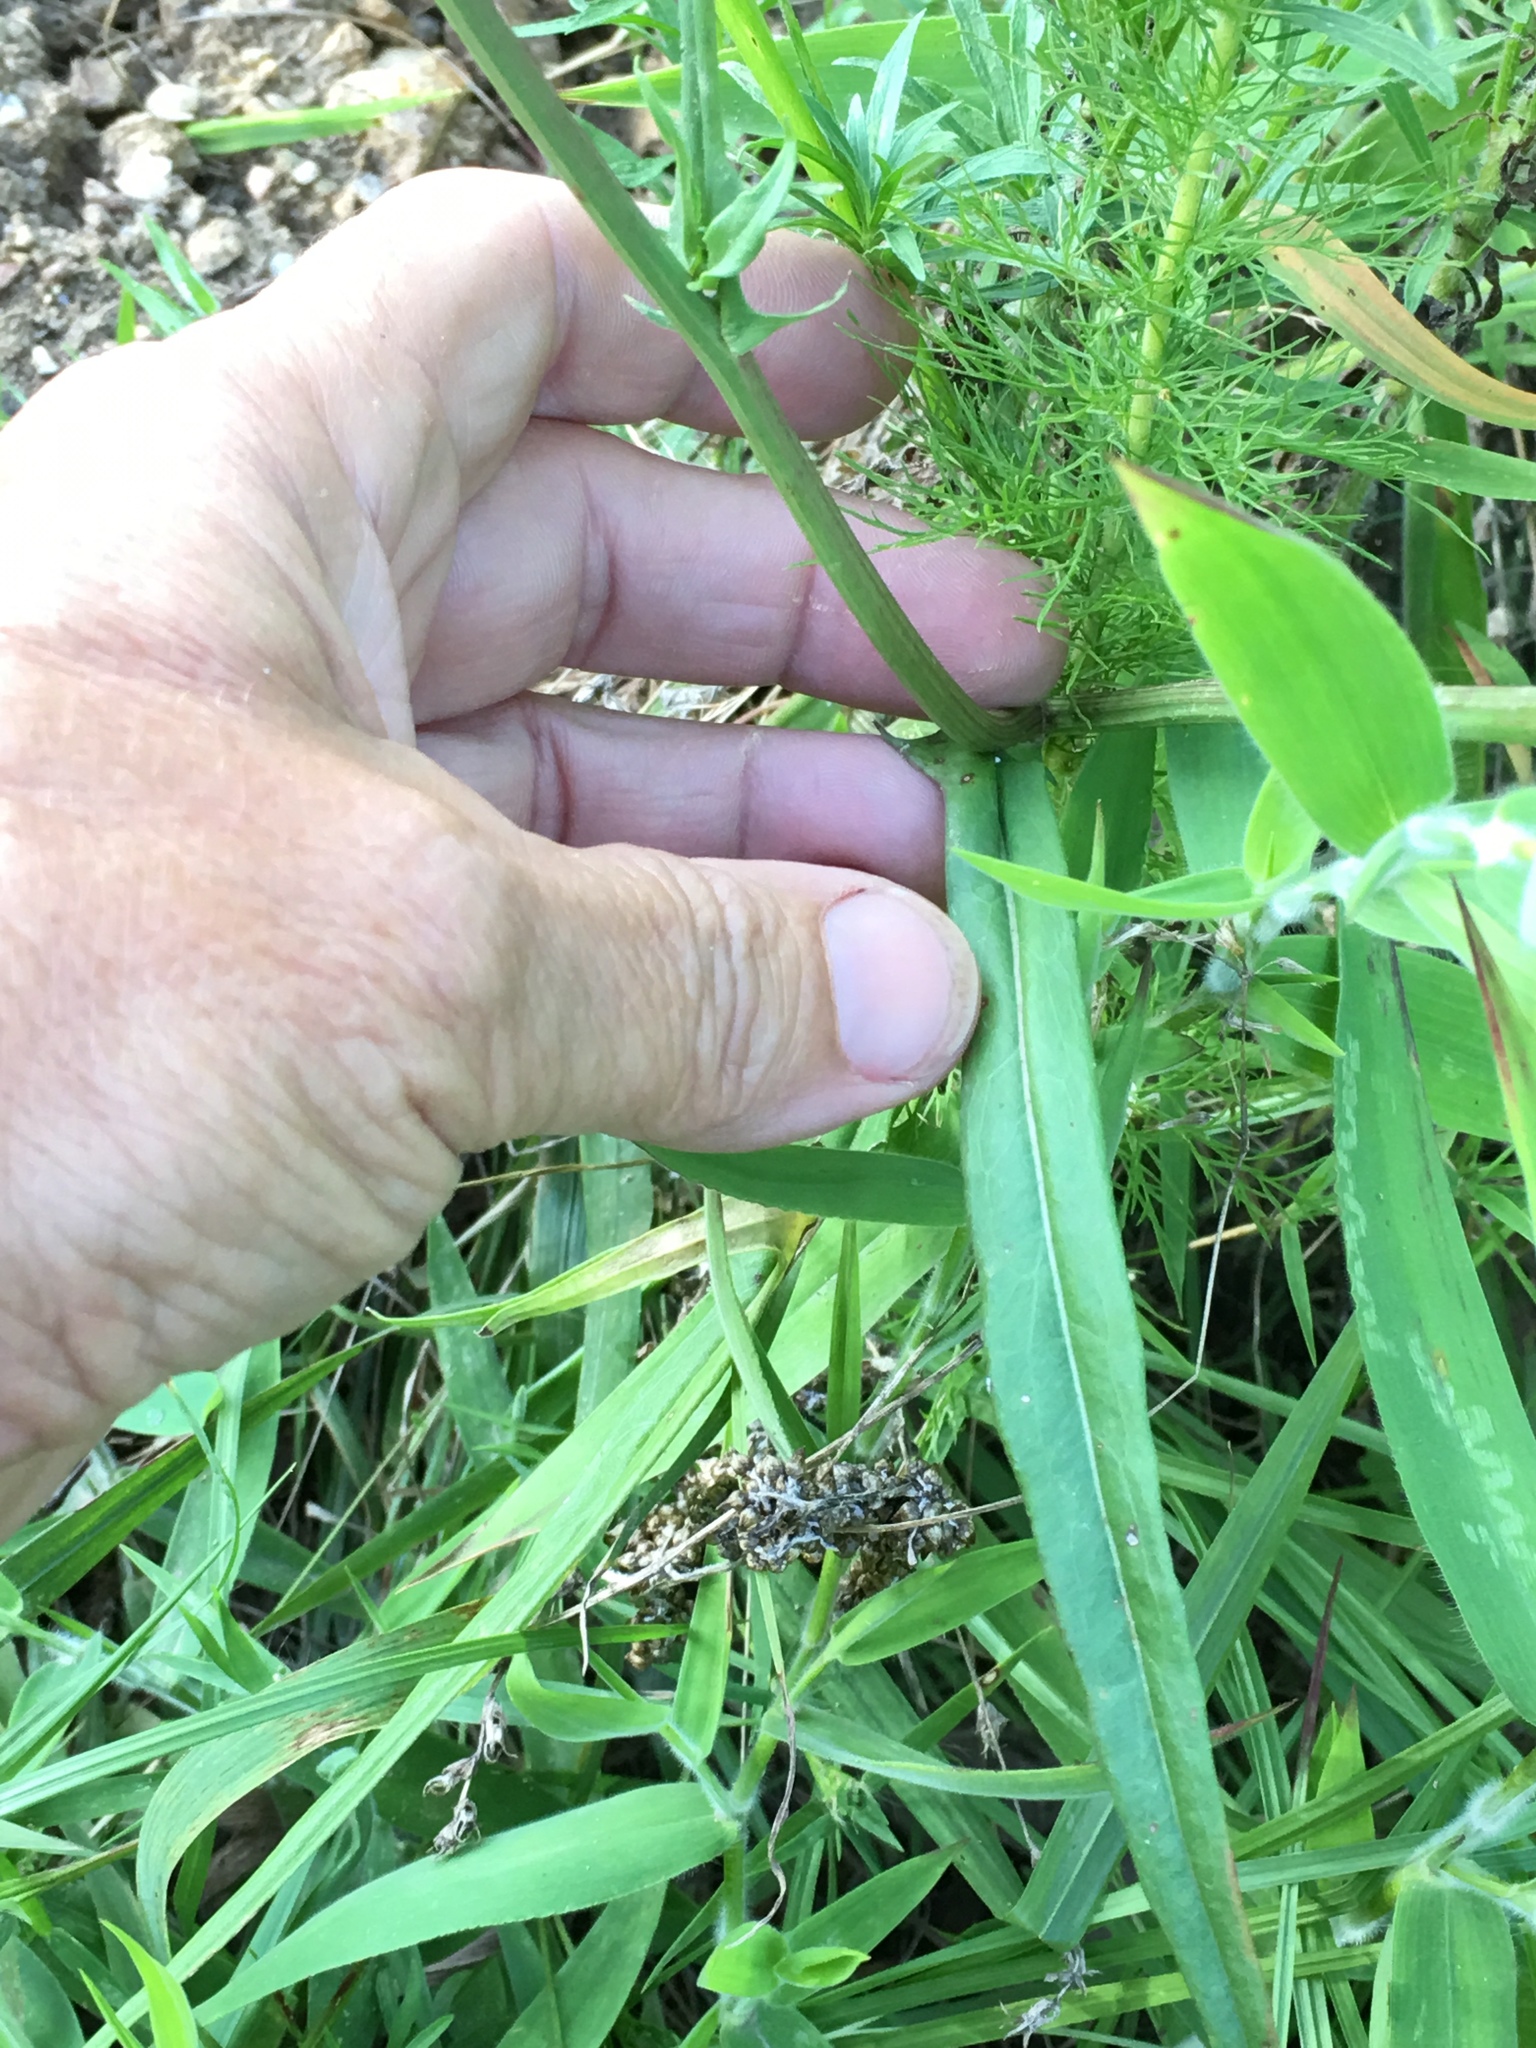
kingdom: Plantae
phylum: Tracheophyta
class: Magnoliopsida
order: Asterales
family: Asteraceae
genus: Pyrrhopappus
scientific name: Pyrrhopappus carolinianus
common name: Carolina desert-chicory
